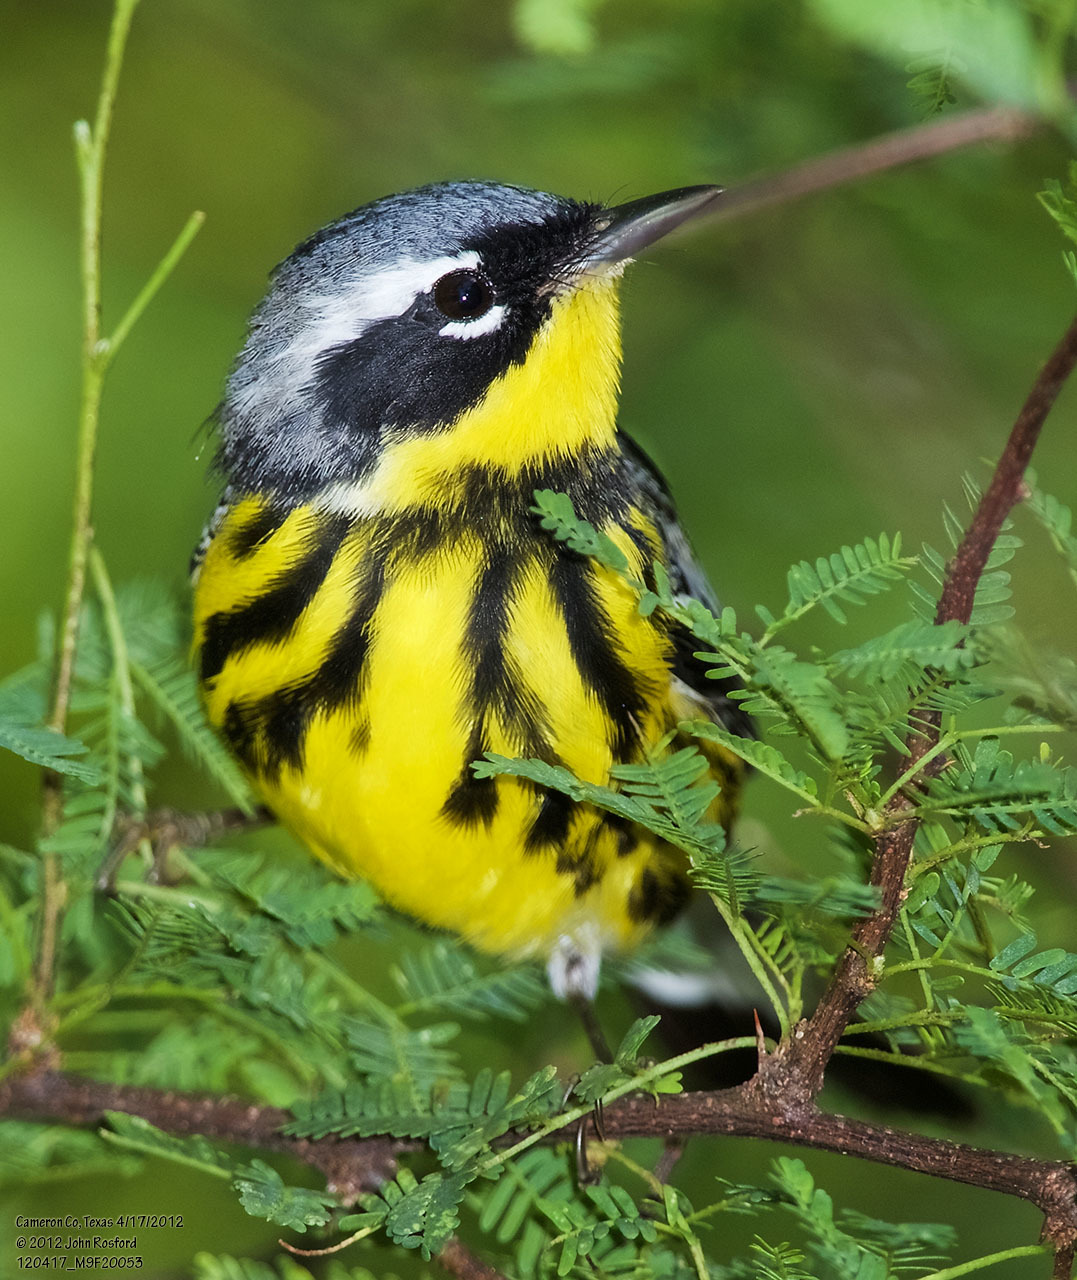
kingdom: Animalia
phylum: Chordata
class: Aves
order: Passeriformes
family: Parulidae
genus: Setophaga
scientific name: Setophaga magnolia
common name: Magnolia warbler
